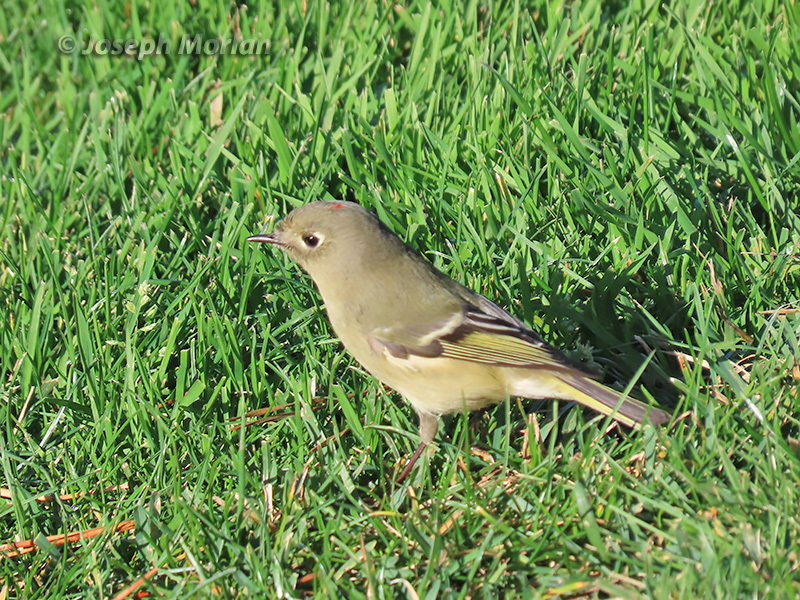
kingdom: Animalia
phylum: Chordata
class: Aves
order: Passeriformes
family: Regulidae
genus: Regulus
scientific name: Regulus calendula
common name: Ruby-crowned kinglet
